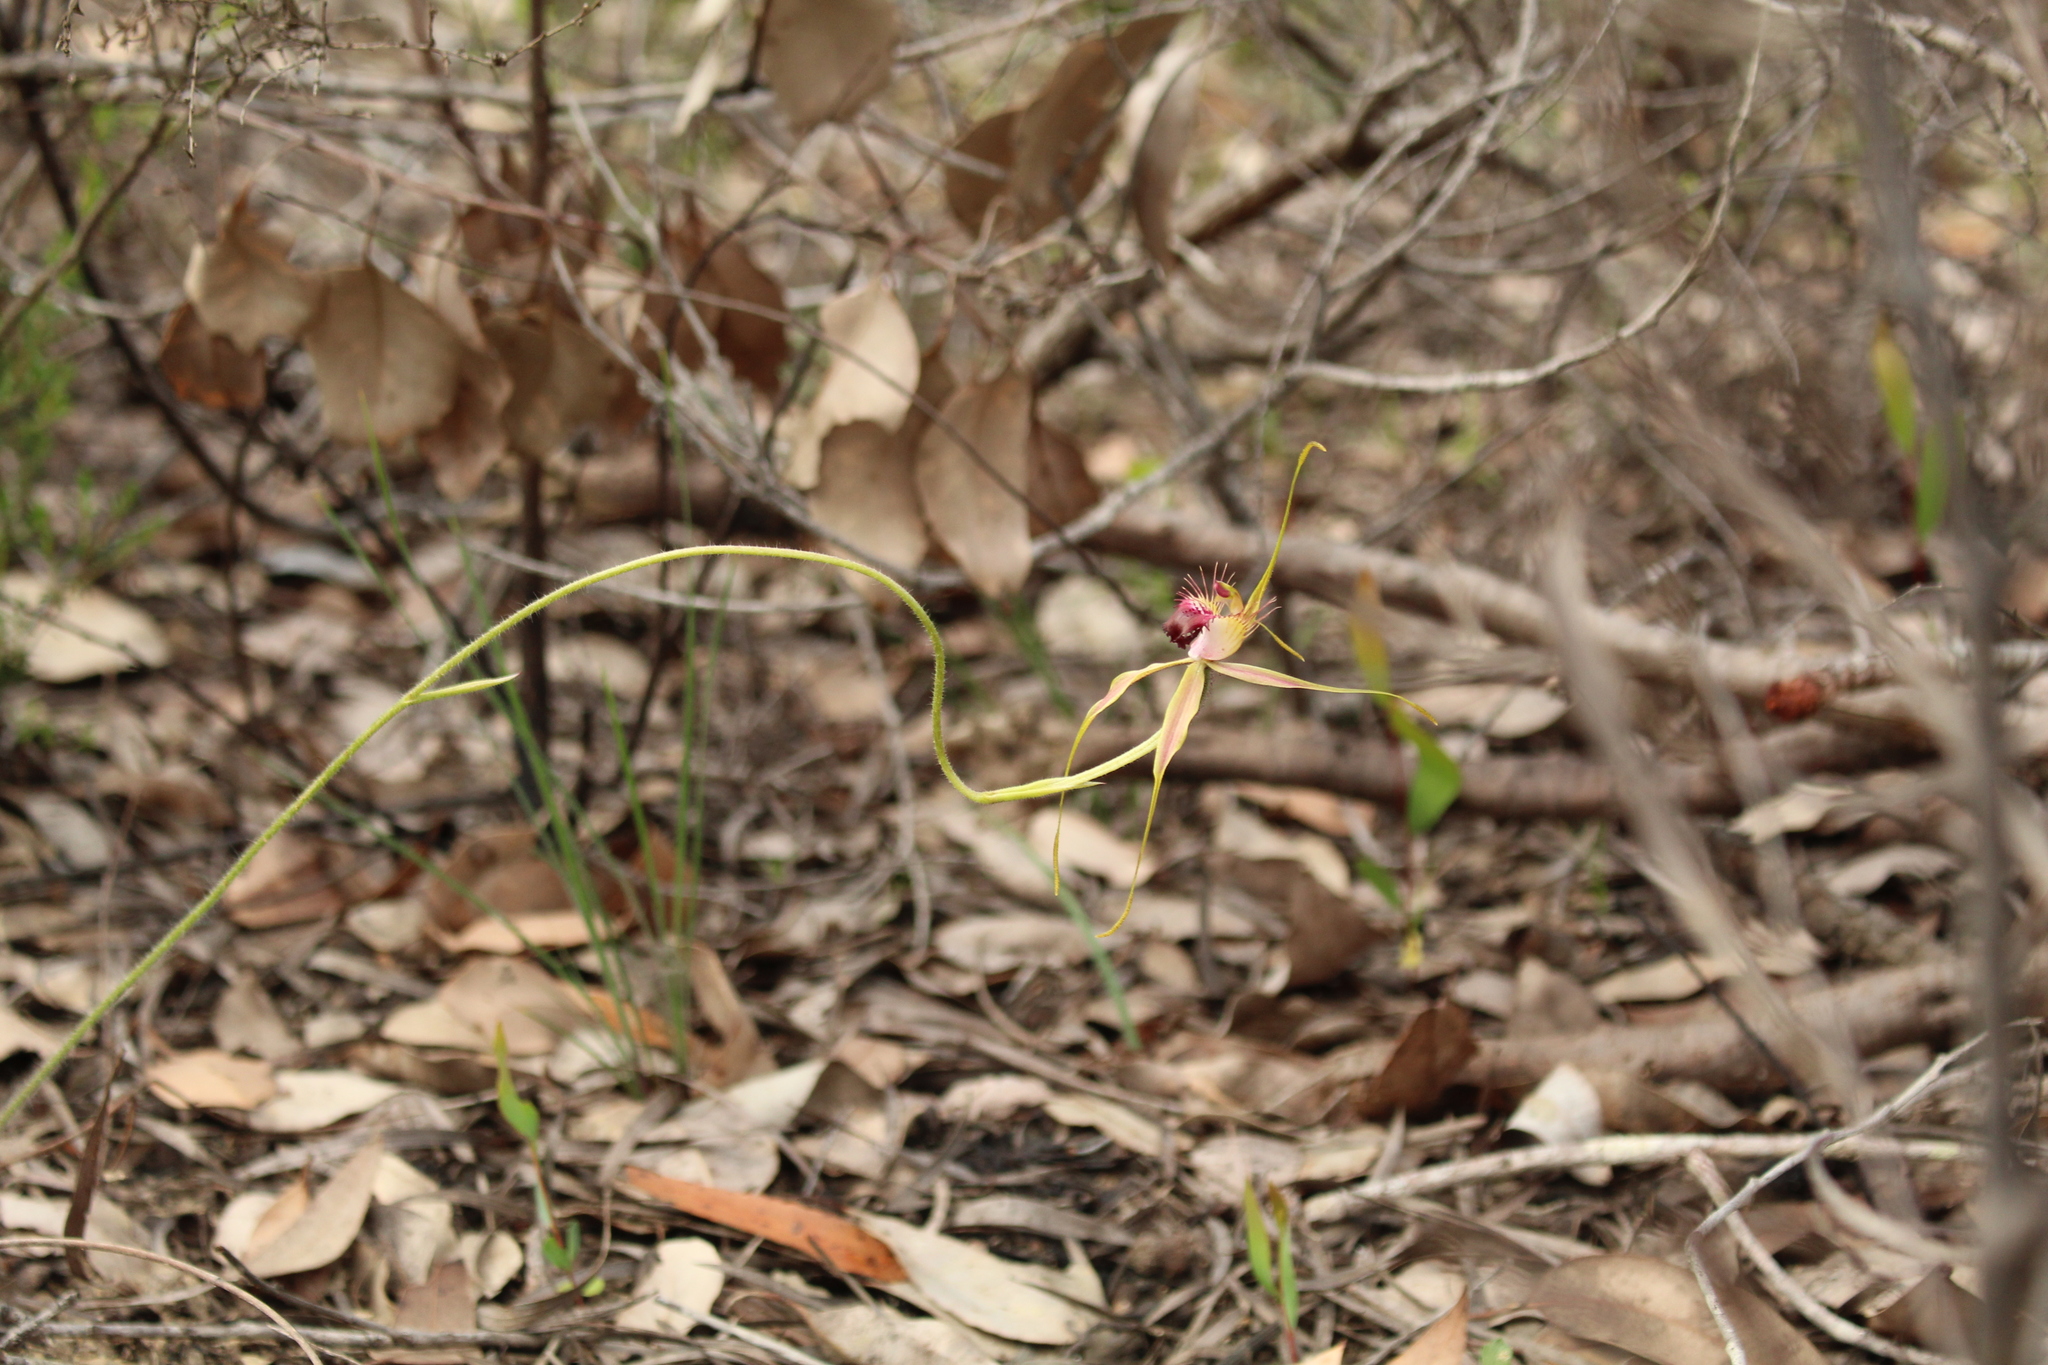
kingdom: Plantae
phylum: Tracheophyta
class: Liliopsida
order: Asparagales
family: Orchidaceae
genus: Caladenia
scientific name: Caladenia brownii
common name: Kari spider orchid
